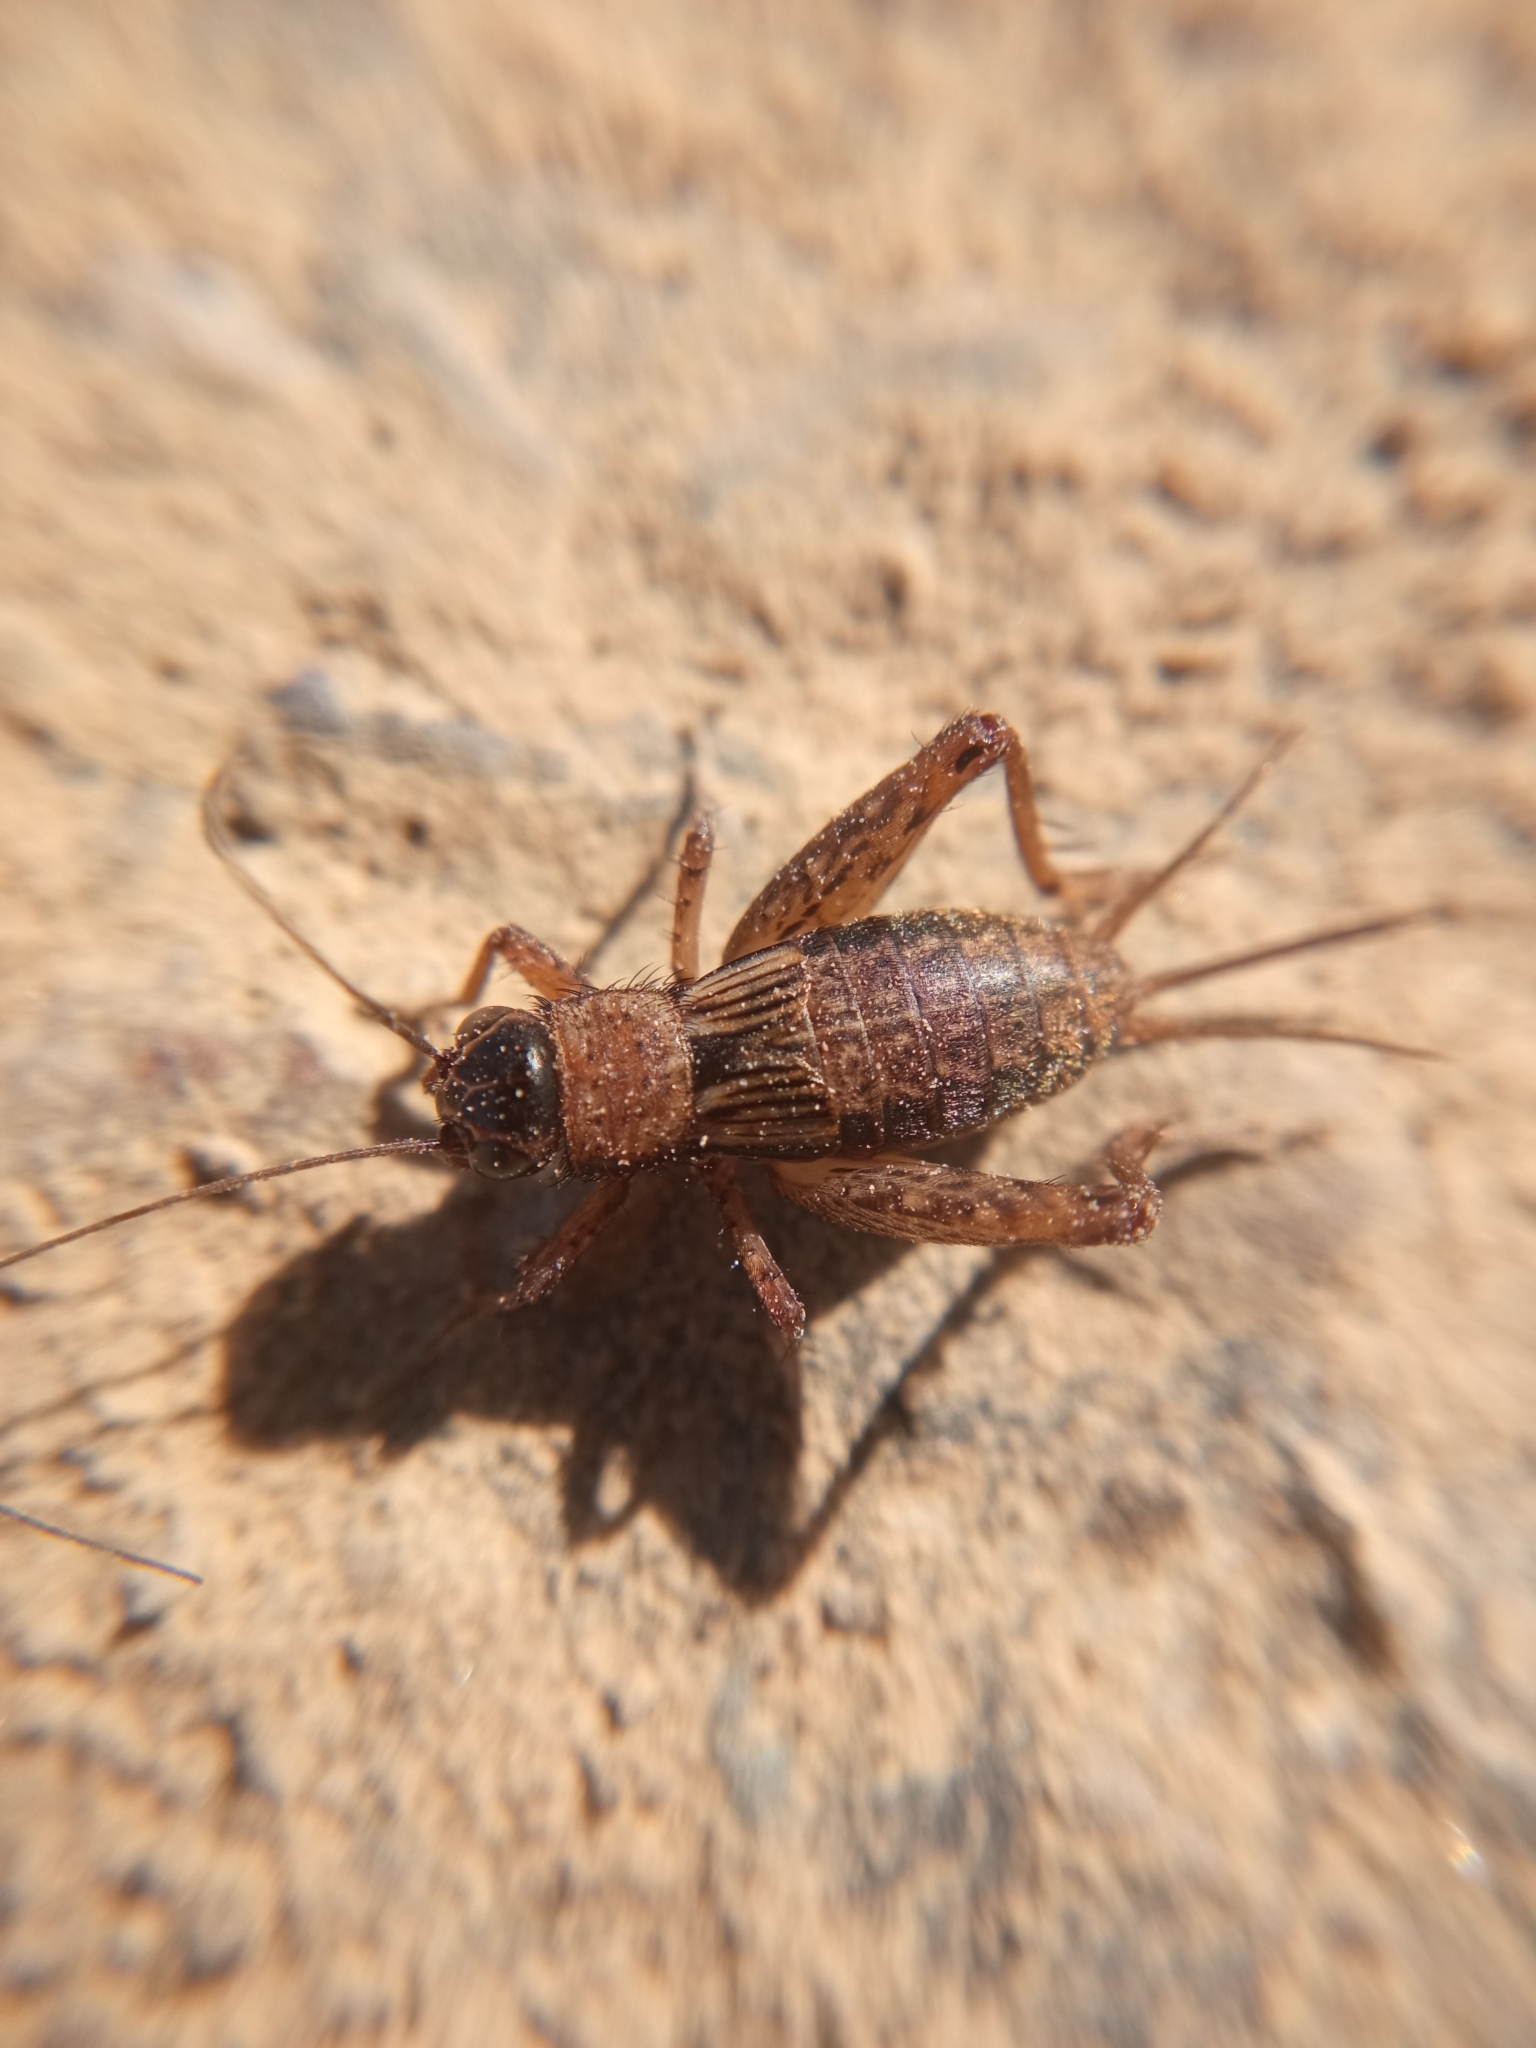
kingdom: Animalia
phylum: Arthropoda
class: Insecta
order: Orthoptera
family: Trigonidiidae
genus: Nemobius
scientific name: Nemobius sylvestris
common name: Wood-cricket
